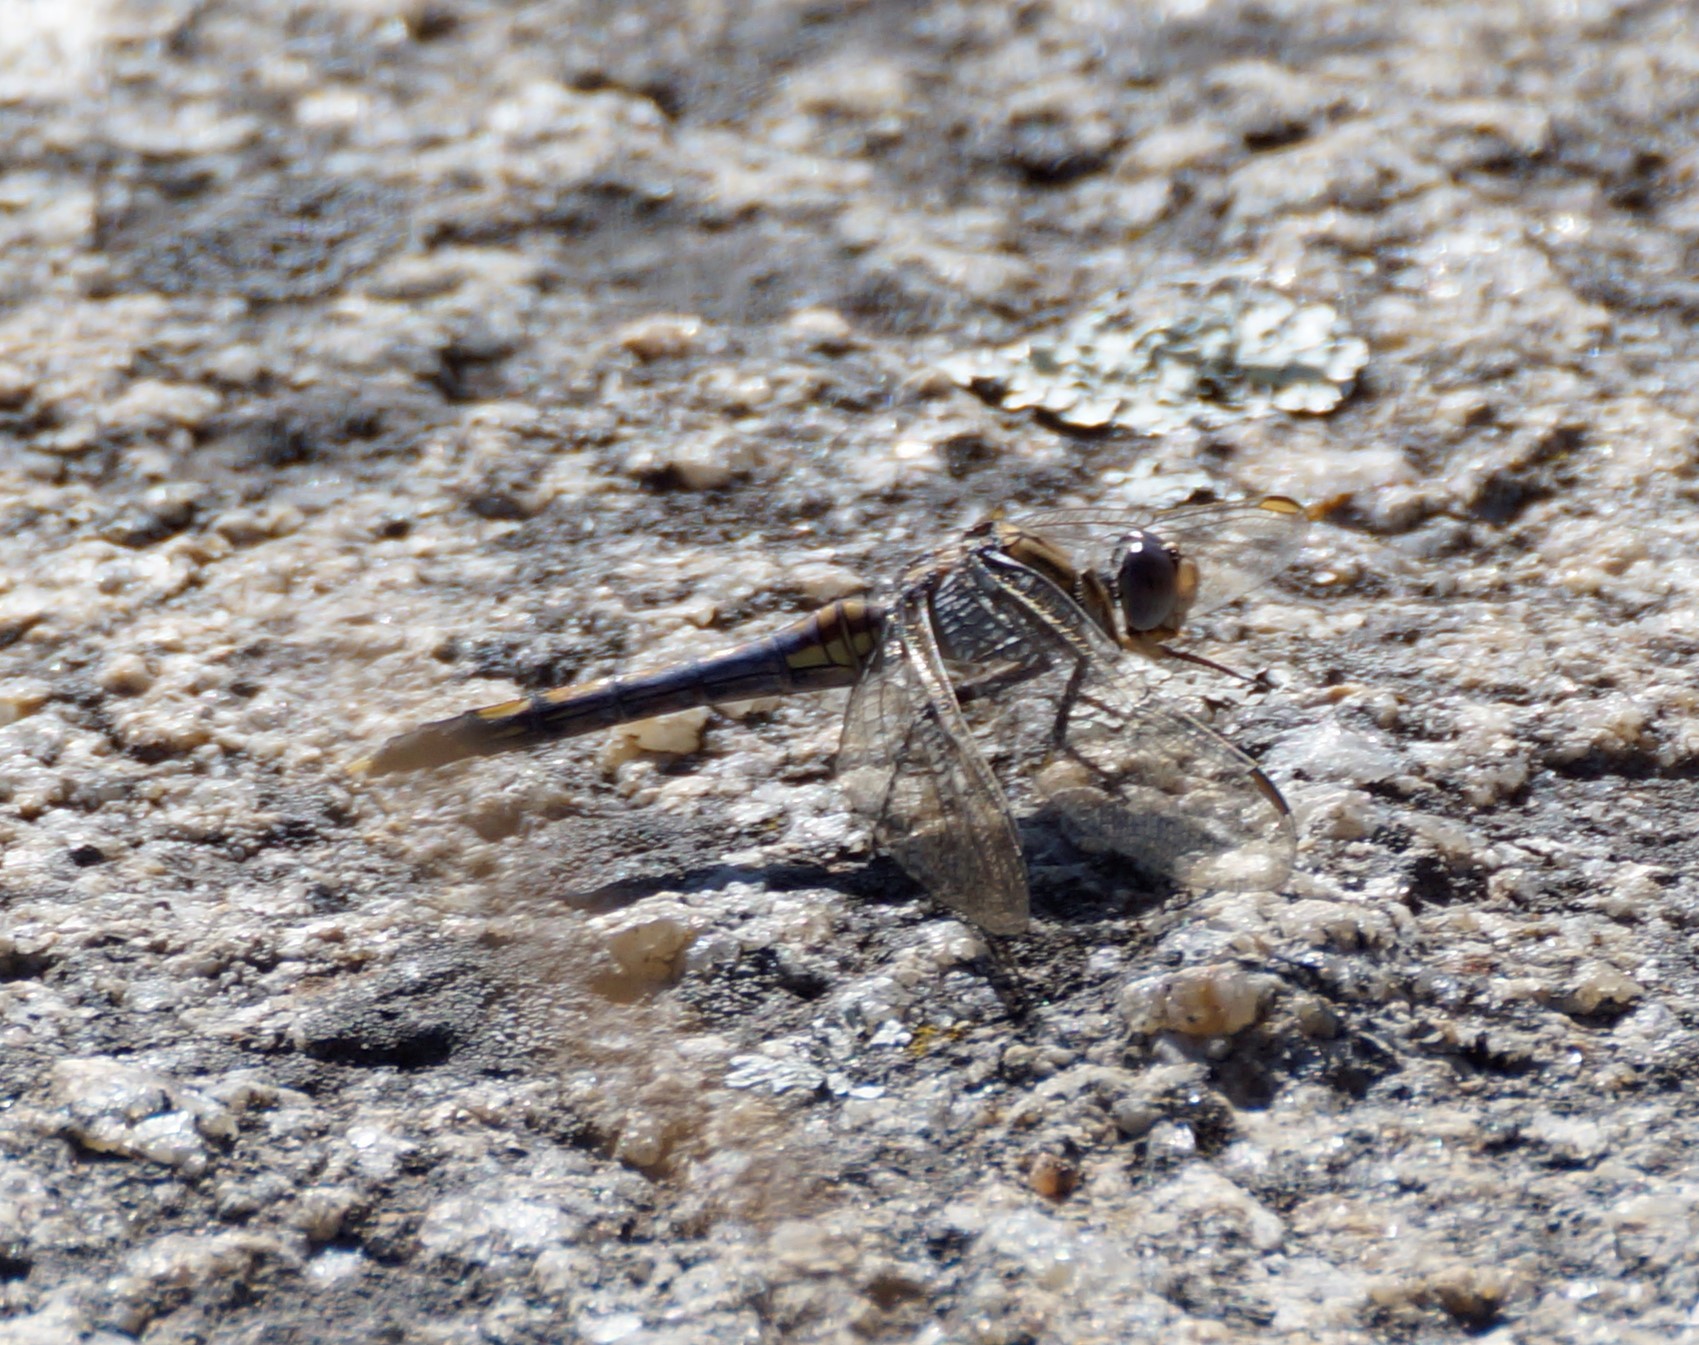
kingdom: Animalia
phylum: Arthropoda
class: Insecta
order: Odonata
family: Libellulidae
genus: Orthetrum
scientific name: Orthetrum caledonicum
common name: Blue skimmer
